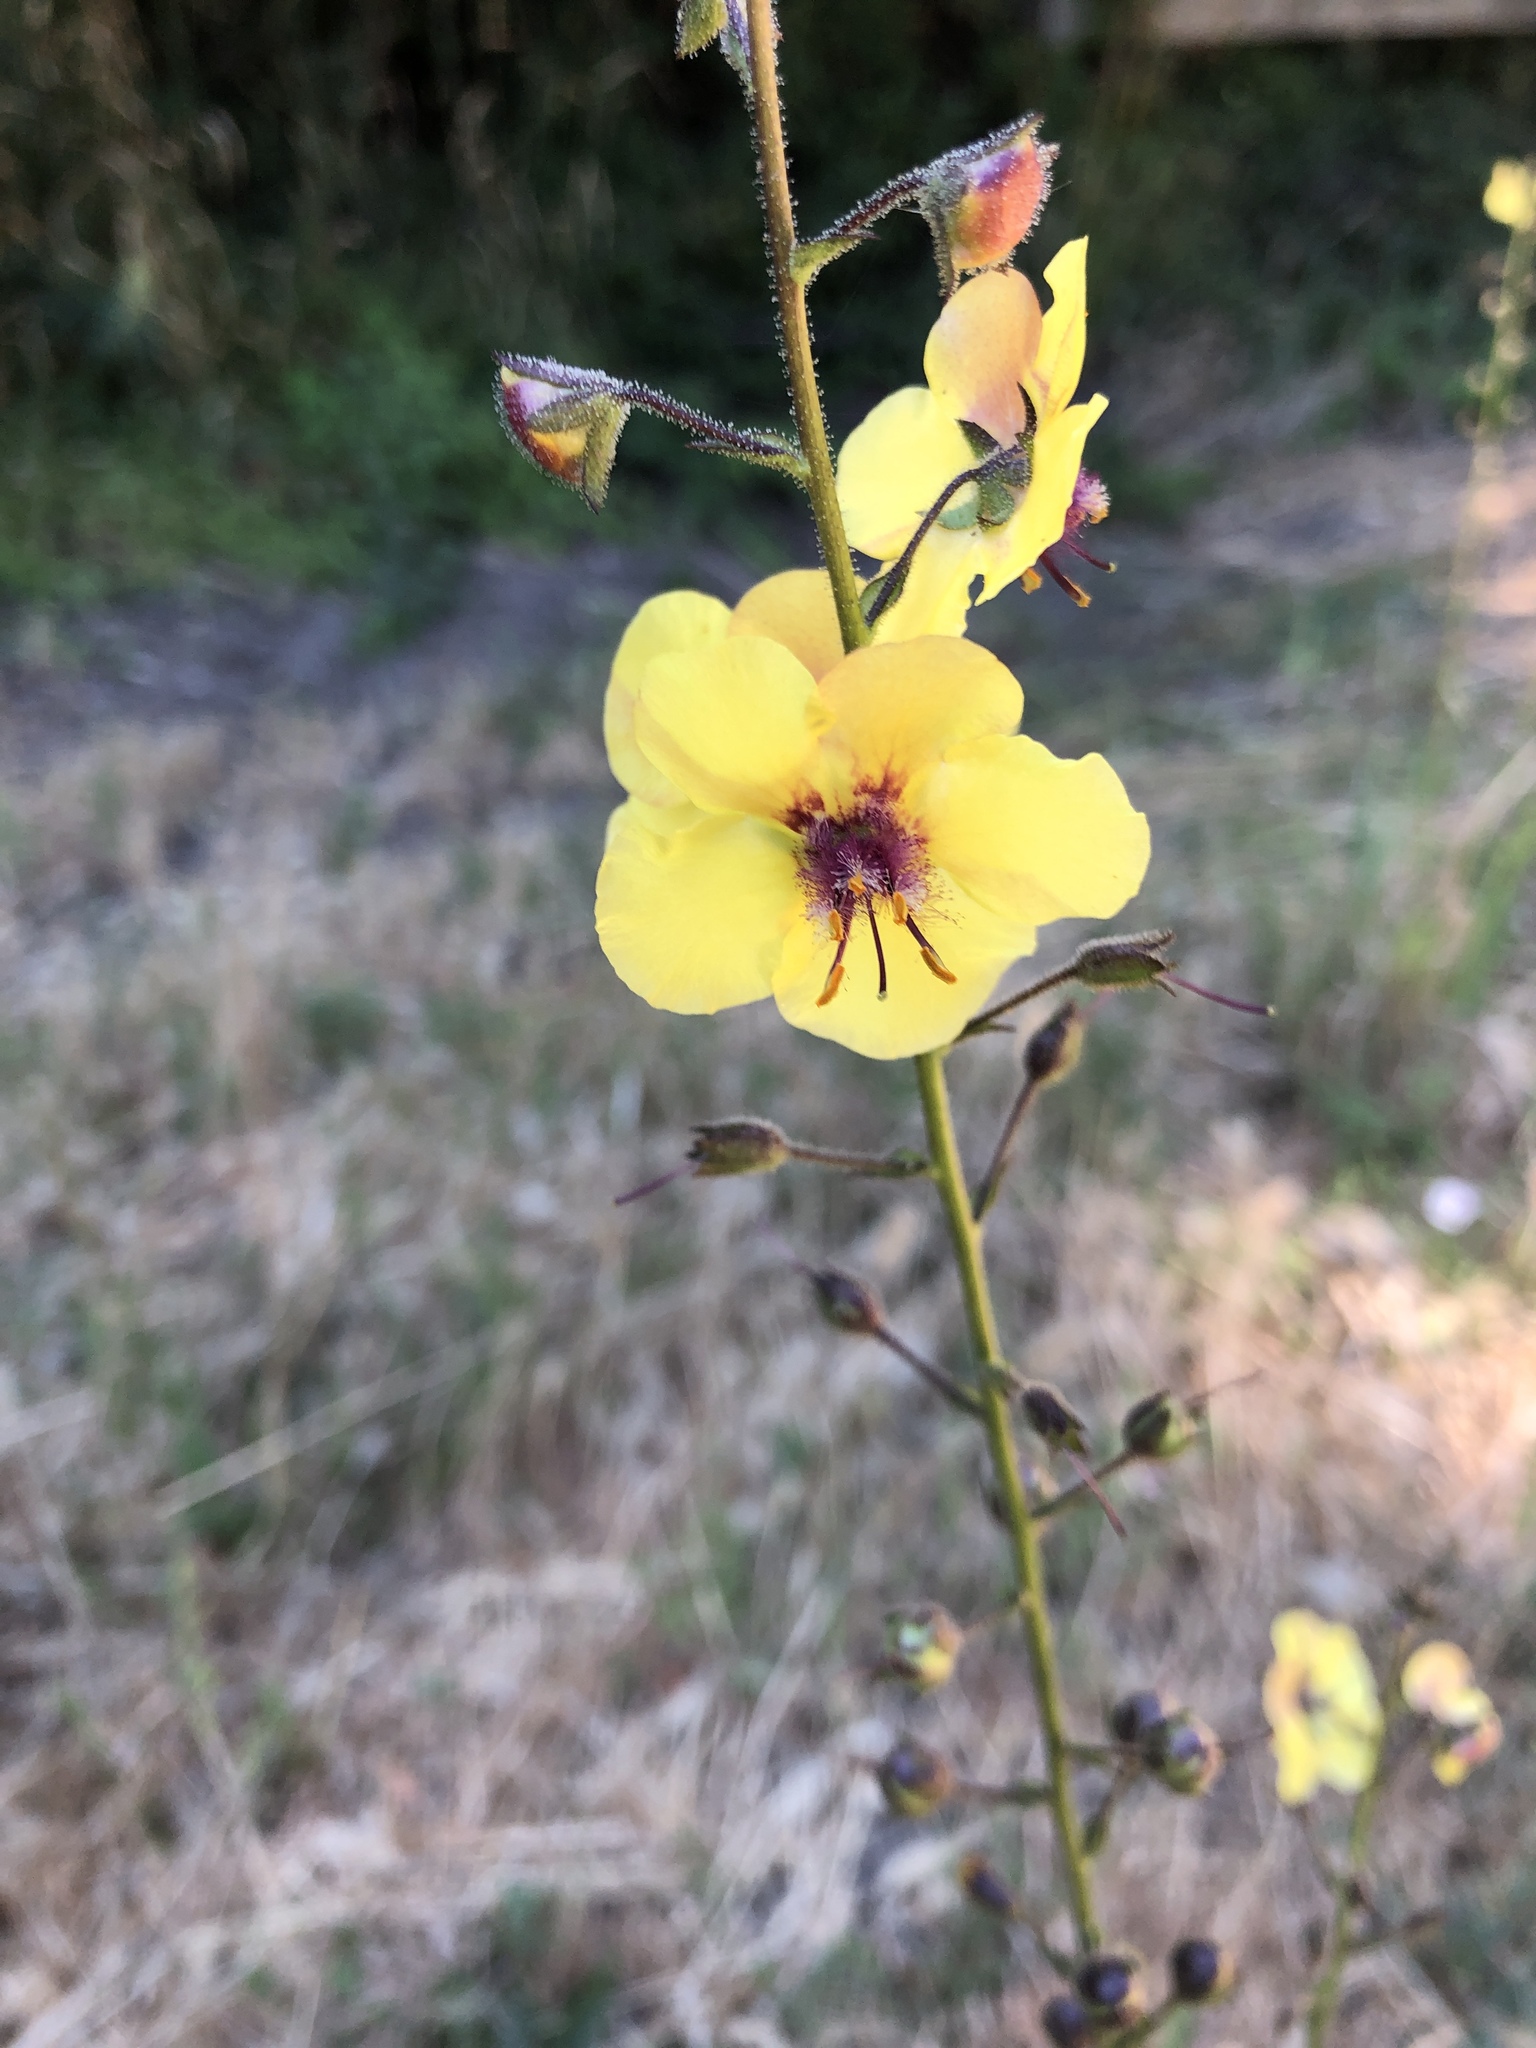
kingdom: Plantae
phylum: Tracheophyta
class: Magnoliopsida
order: Lamiales
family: Scrophulariaceae
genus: Verbascum
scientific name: Verbascum blattaria
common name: Moth mullein
